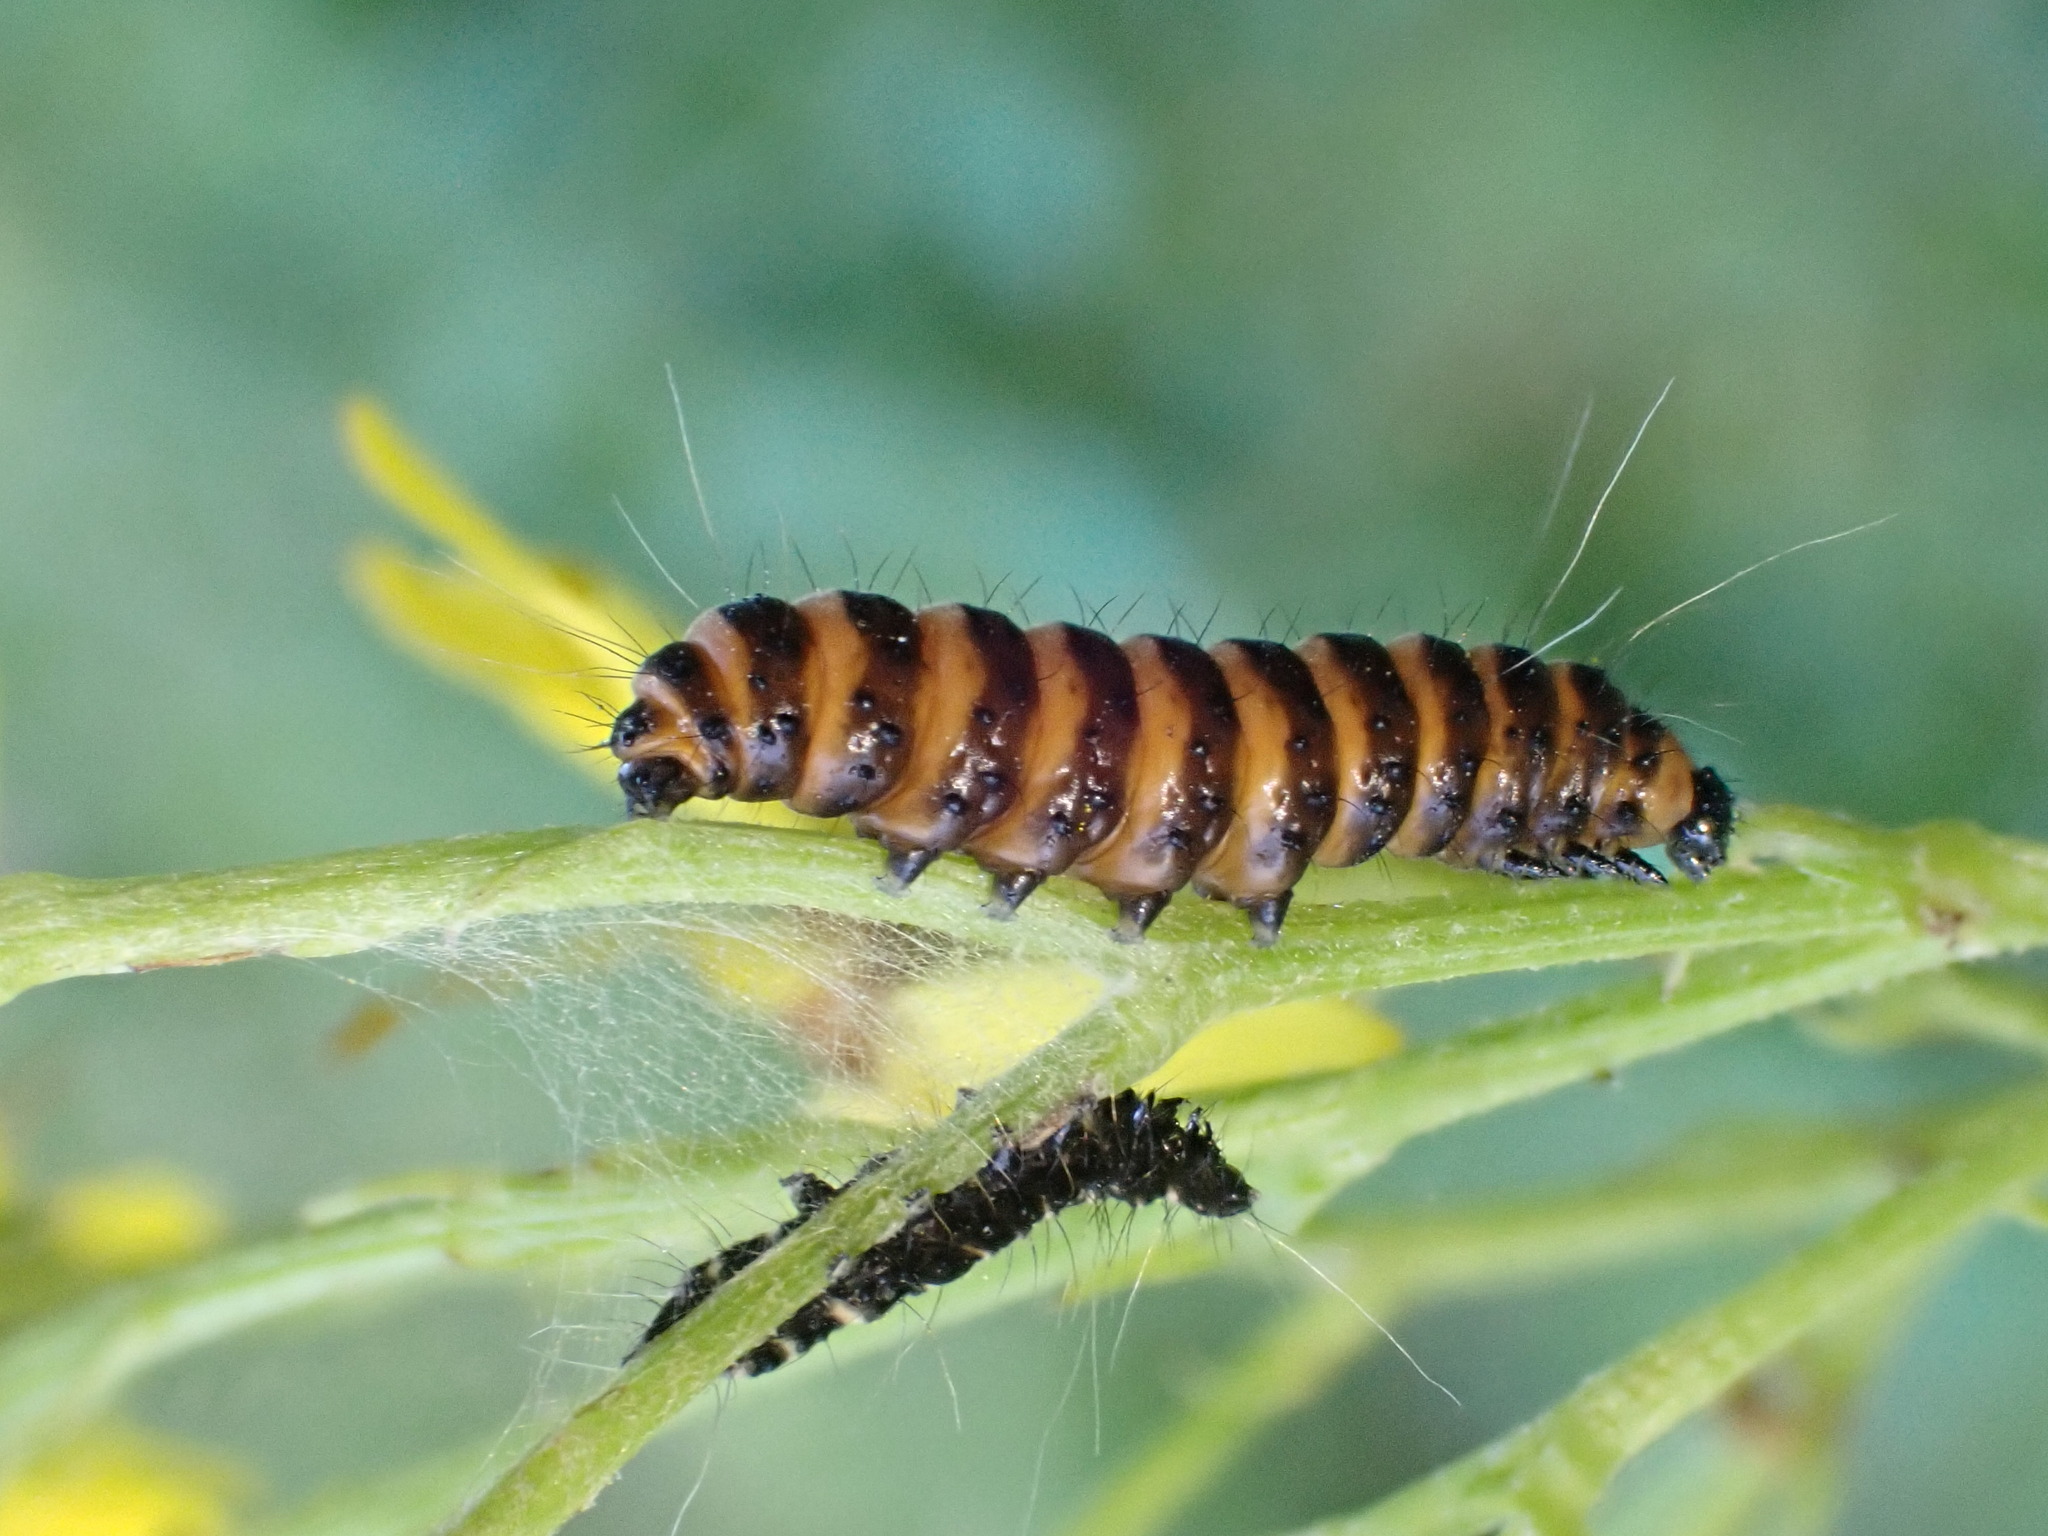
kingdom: Animalia
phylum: Arthropoda
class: Insecta
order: Lepidoptera
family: Erebidae
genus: Tyria
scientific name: Tyria jacobaeae
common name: Cinnabar
